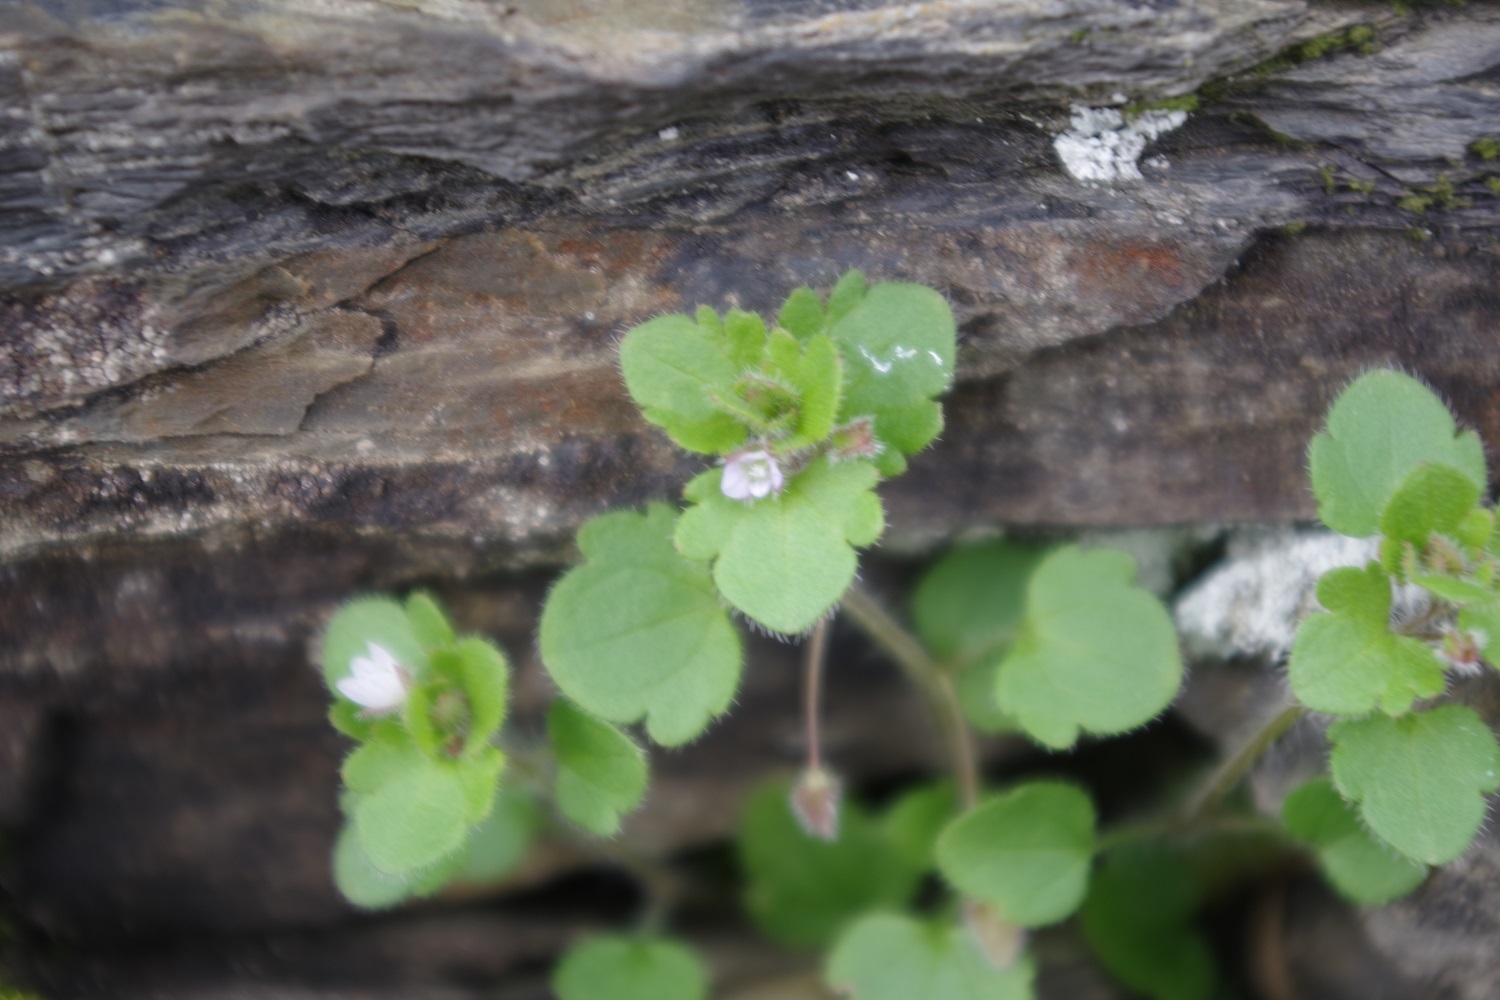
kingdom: Plantae
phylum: Tracheophyta
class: Magnoliopsida
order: Lamiales
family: Plantaginaceae
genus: Veronica
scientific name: Veronica sublobata
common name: False ivy-leaved speedwell
